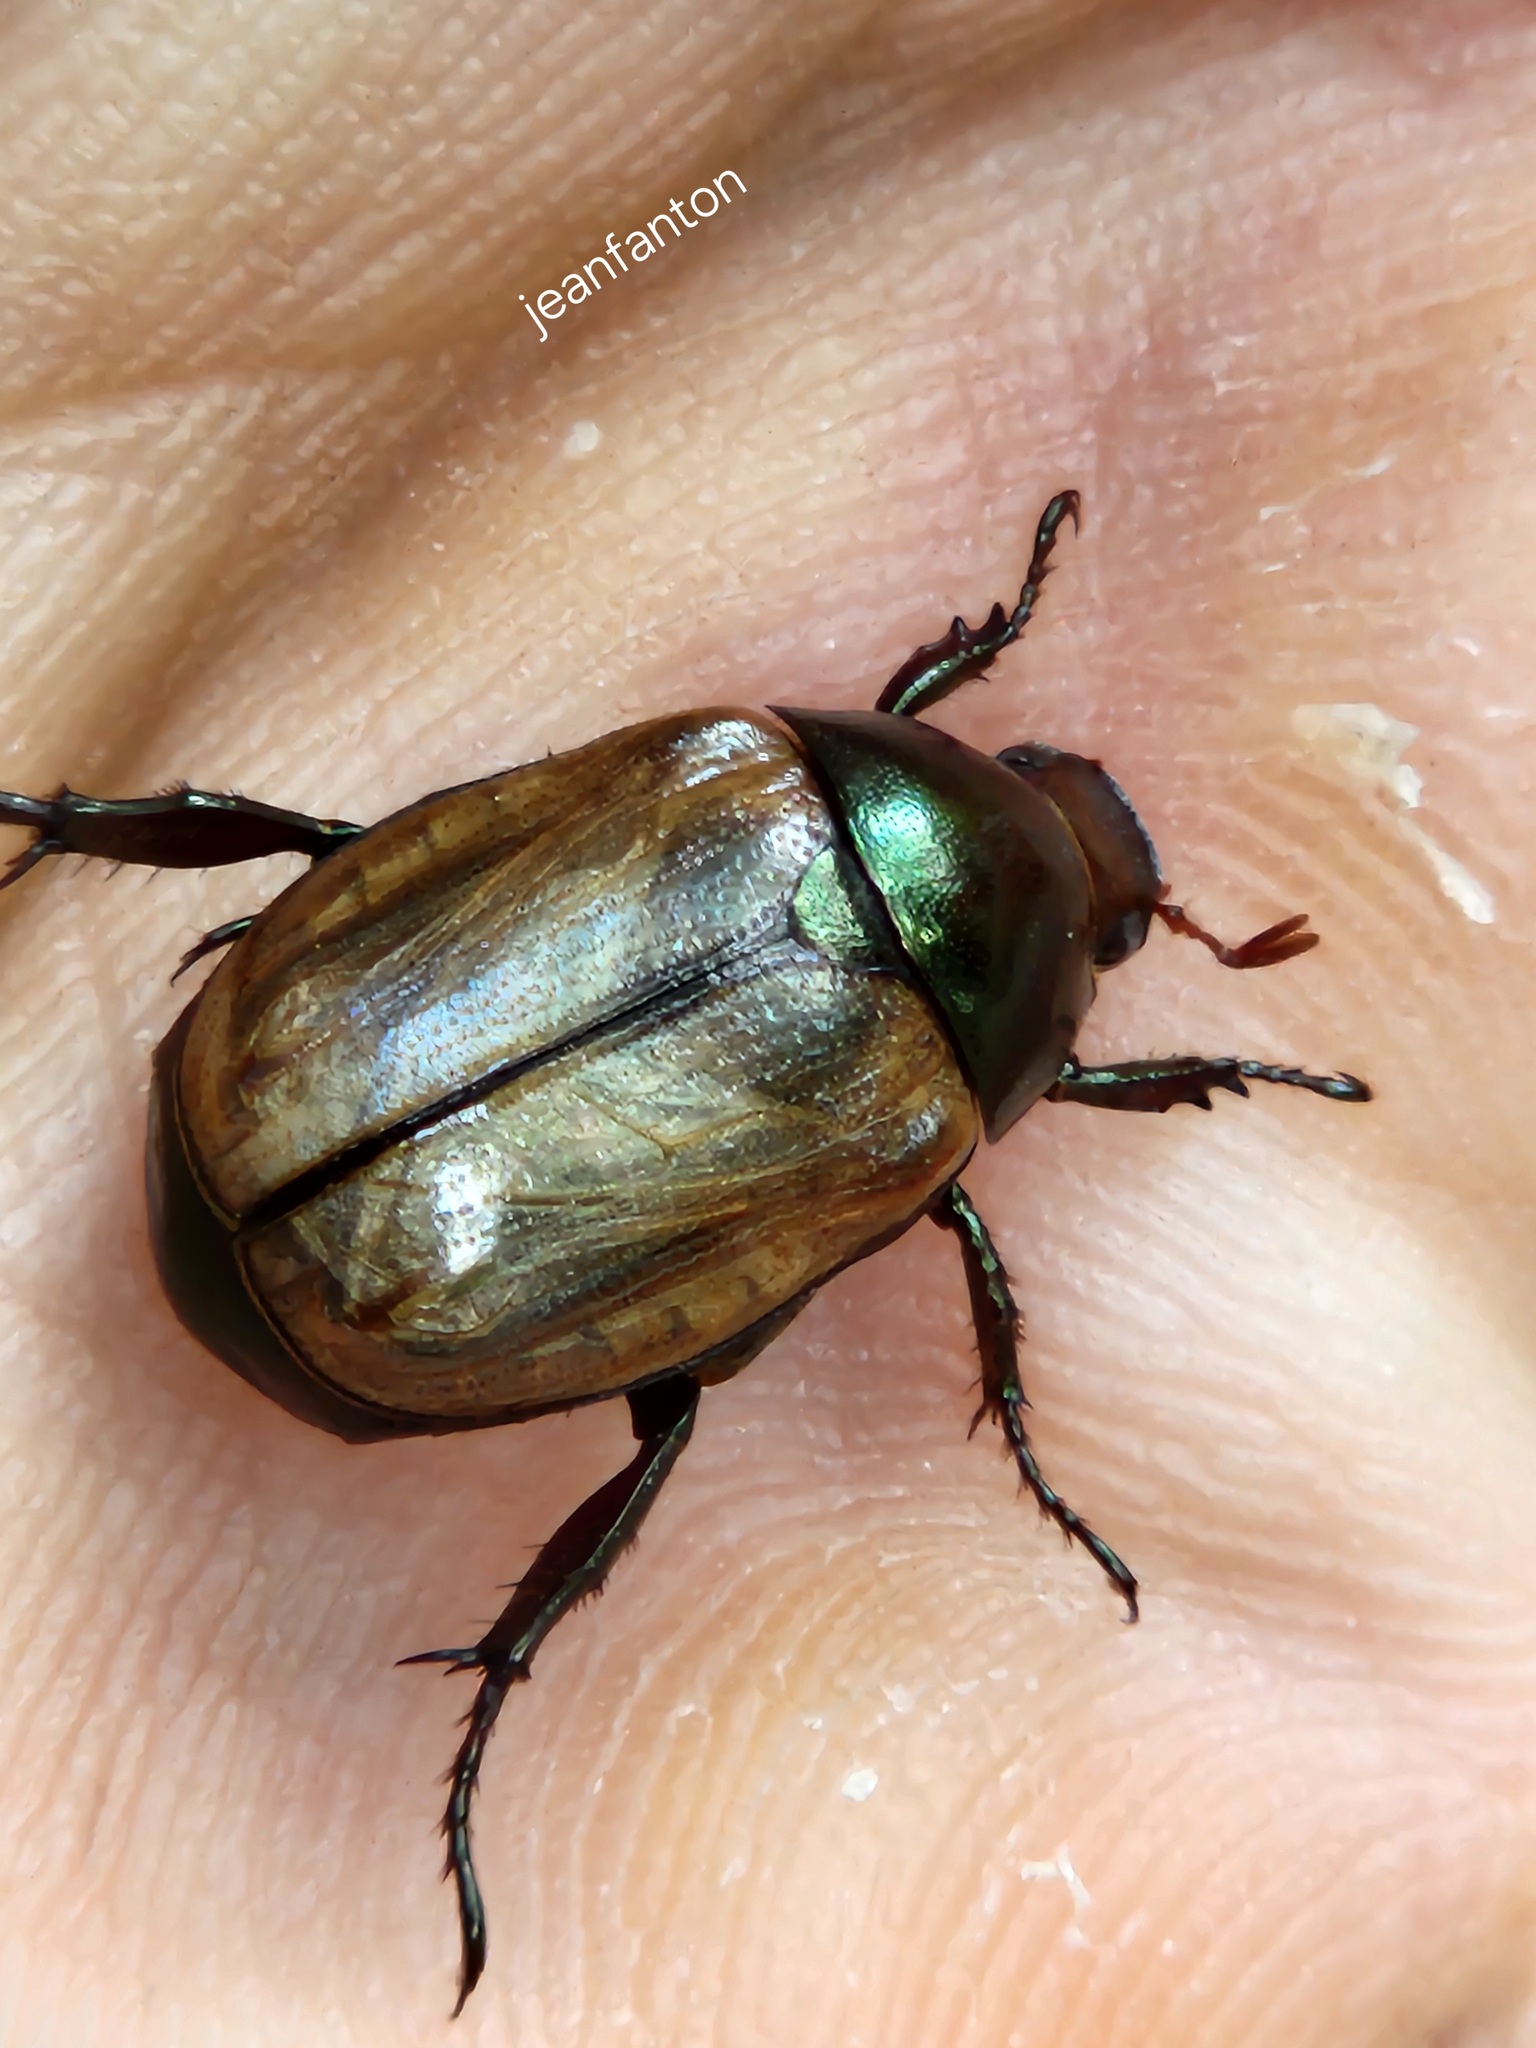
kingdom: Animalia
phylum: Arthropoda
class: Insecta
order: Coleoptera
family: Scarabaeidae
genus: Paranomala
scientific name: Paranomala testaceipennis
